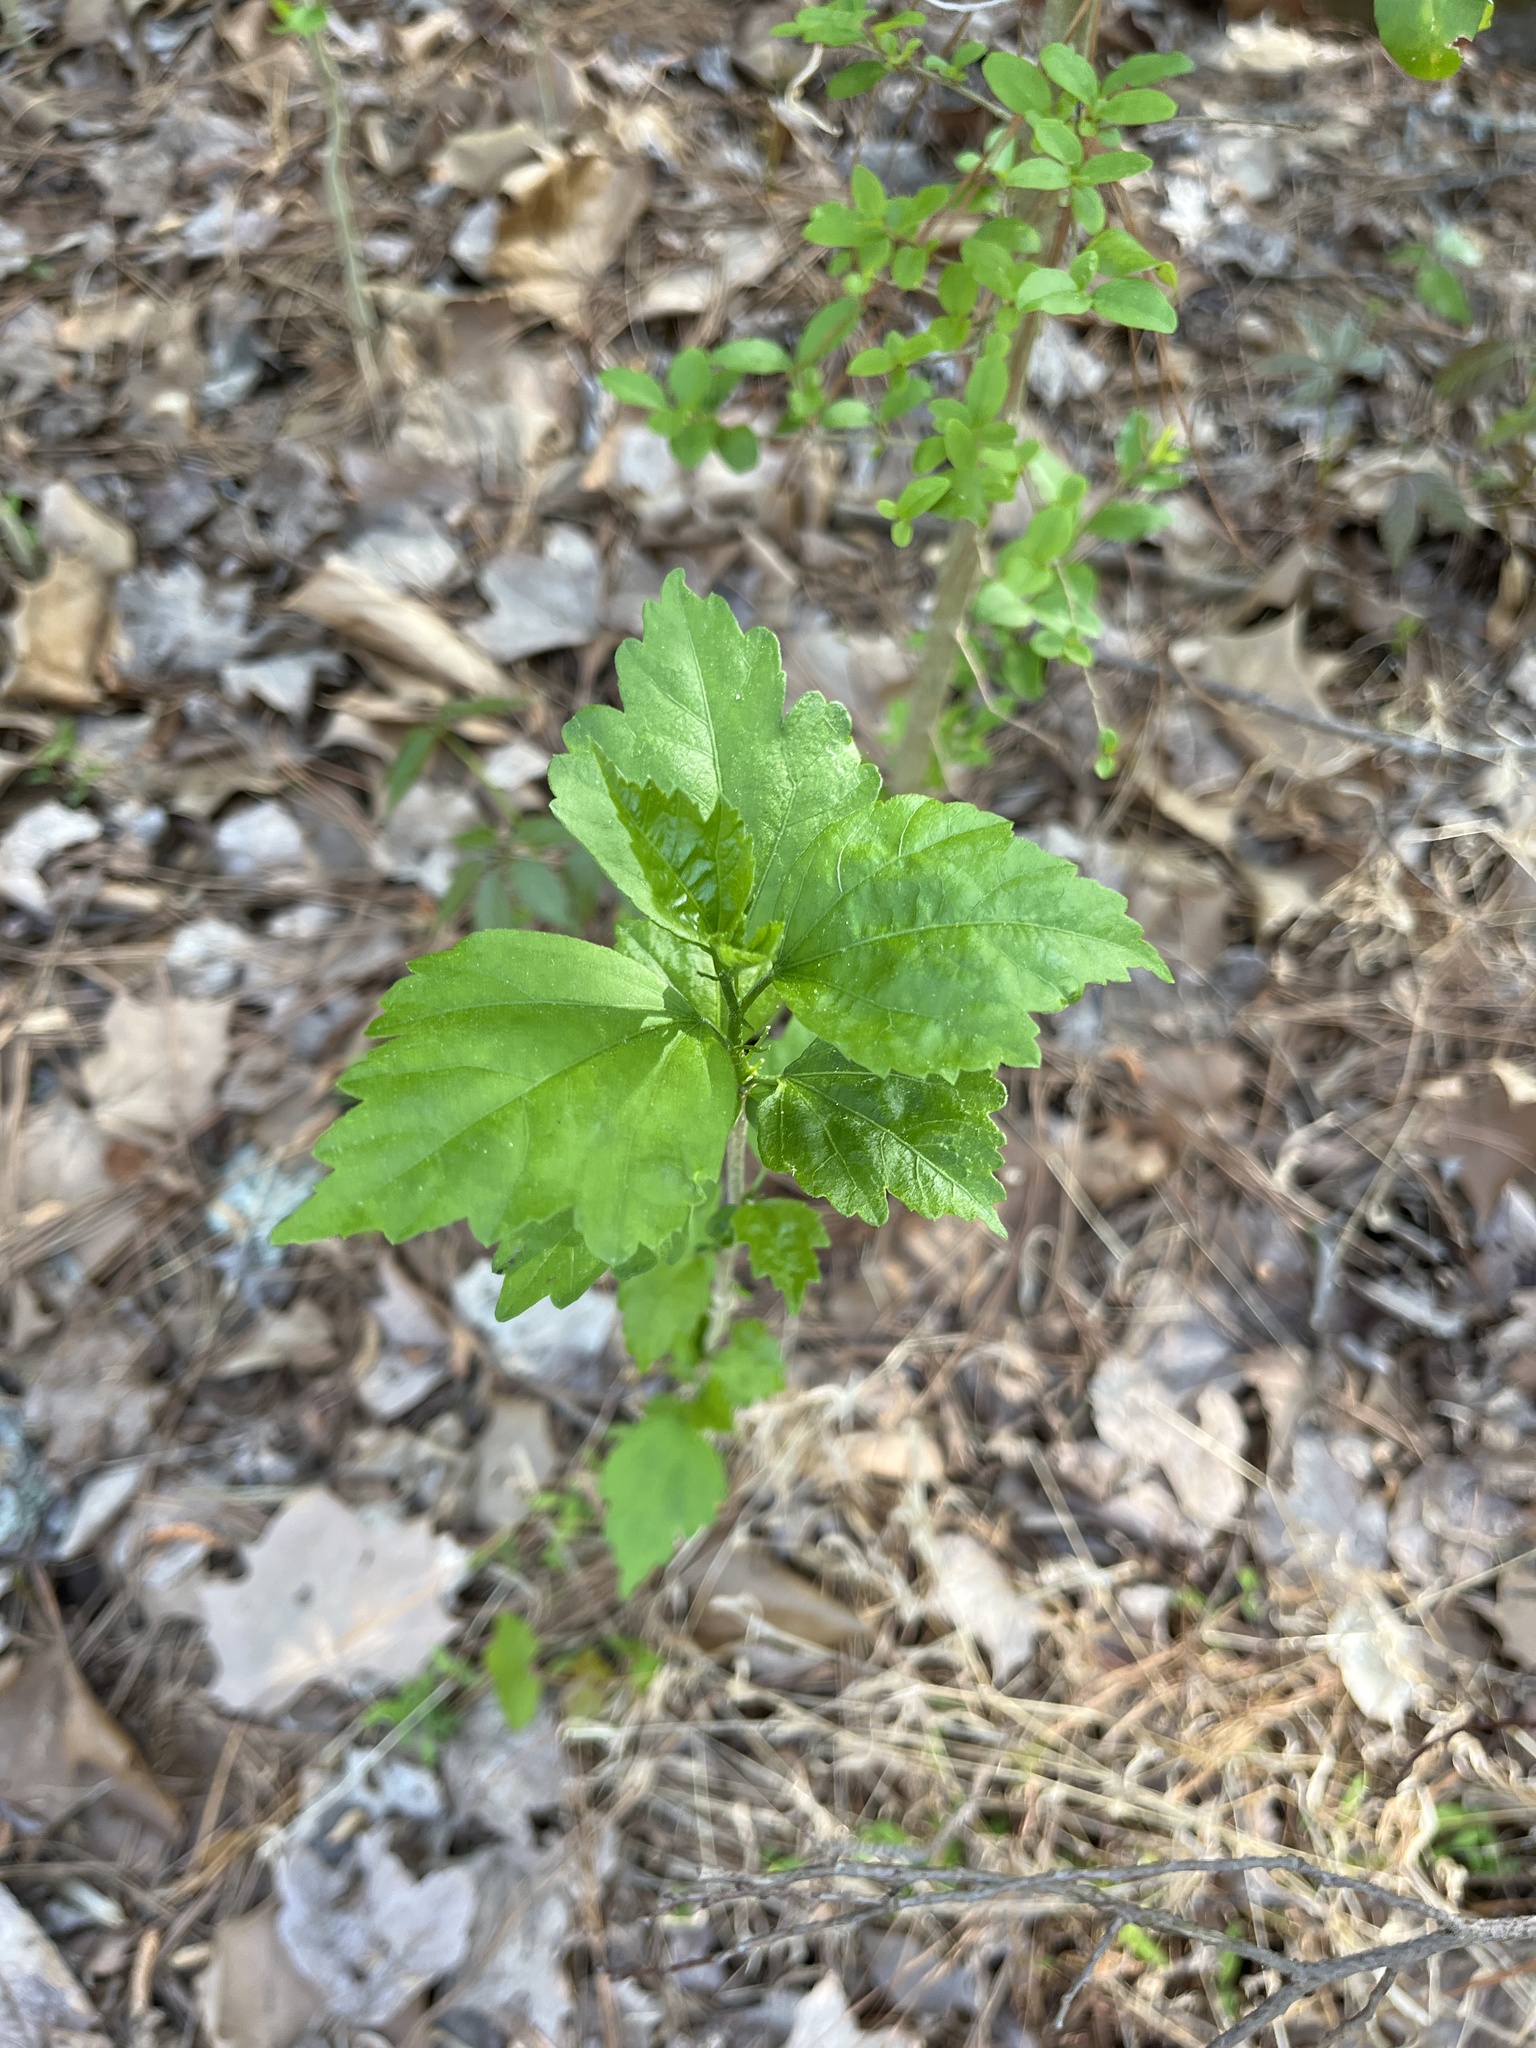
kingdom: Plantae
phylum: Tracheophyta
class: Magnoliopsida
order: Malvales
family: Malvaceae
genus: Hibiscus
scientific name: Hibiscus syriacus
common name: Syrian ketmia
